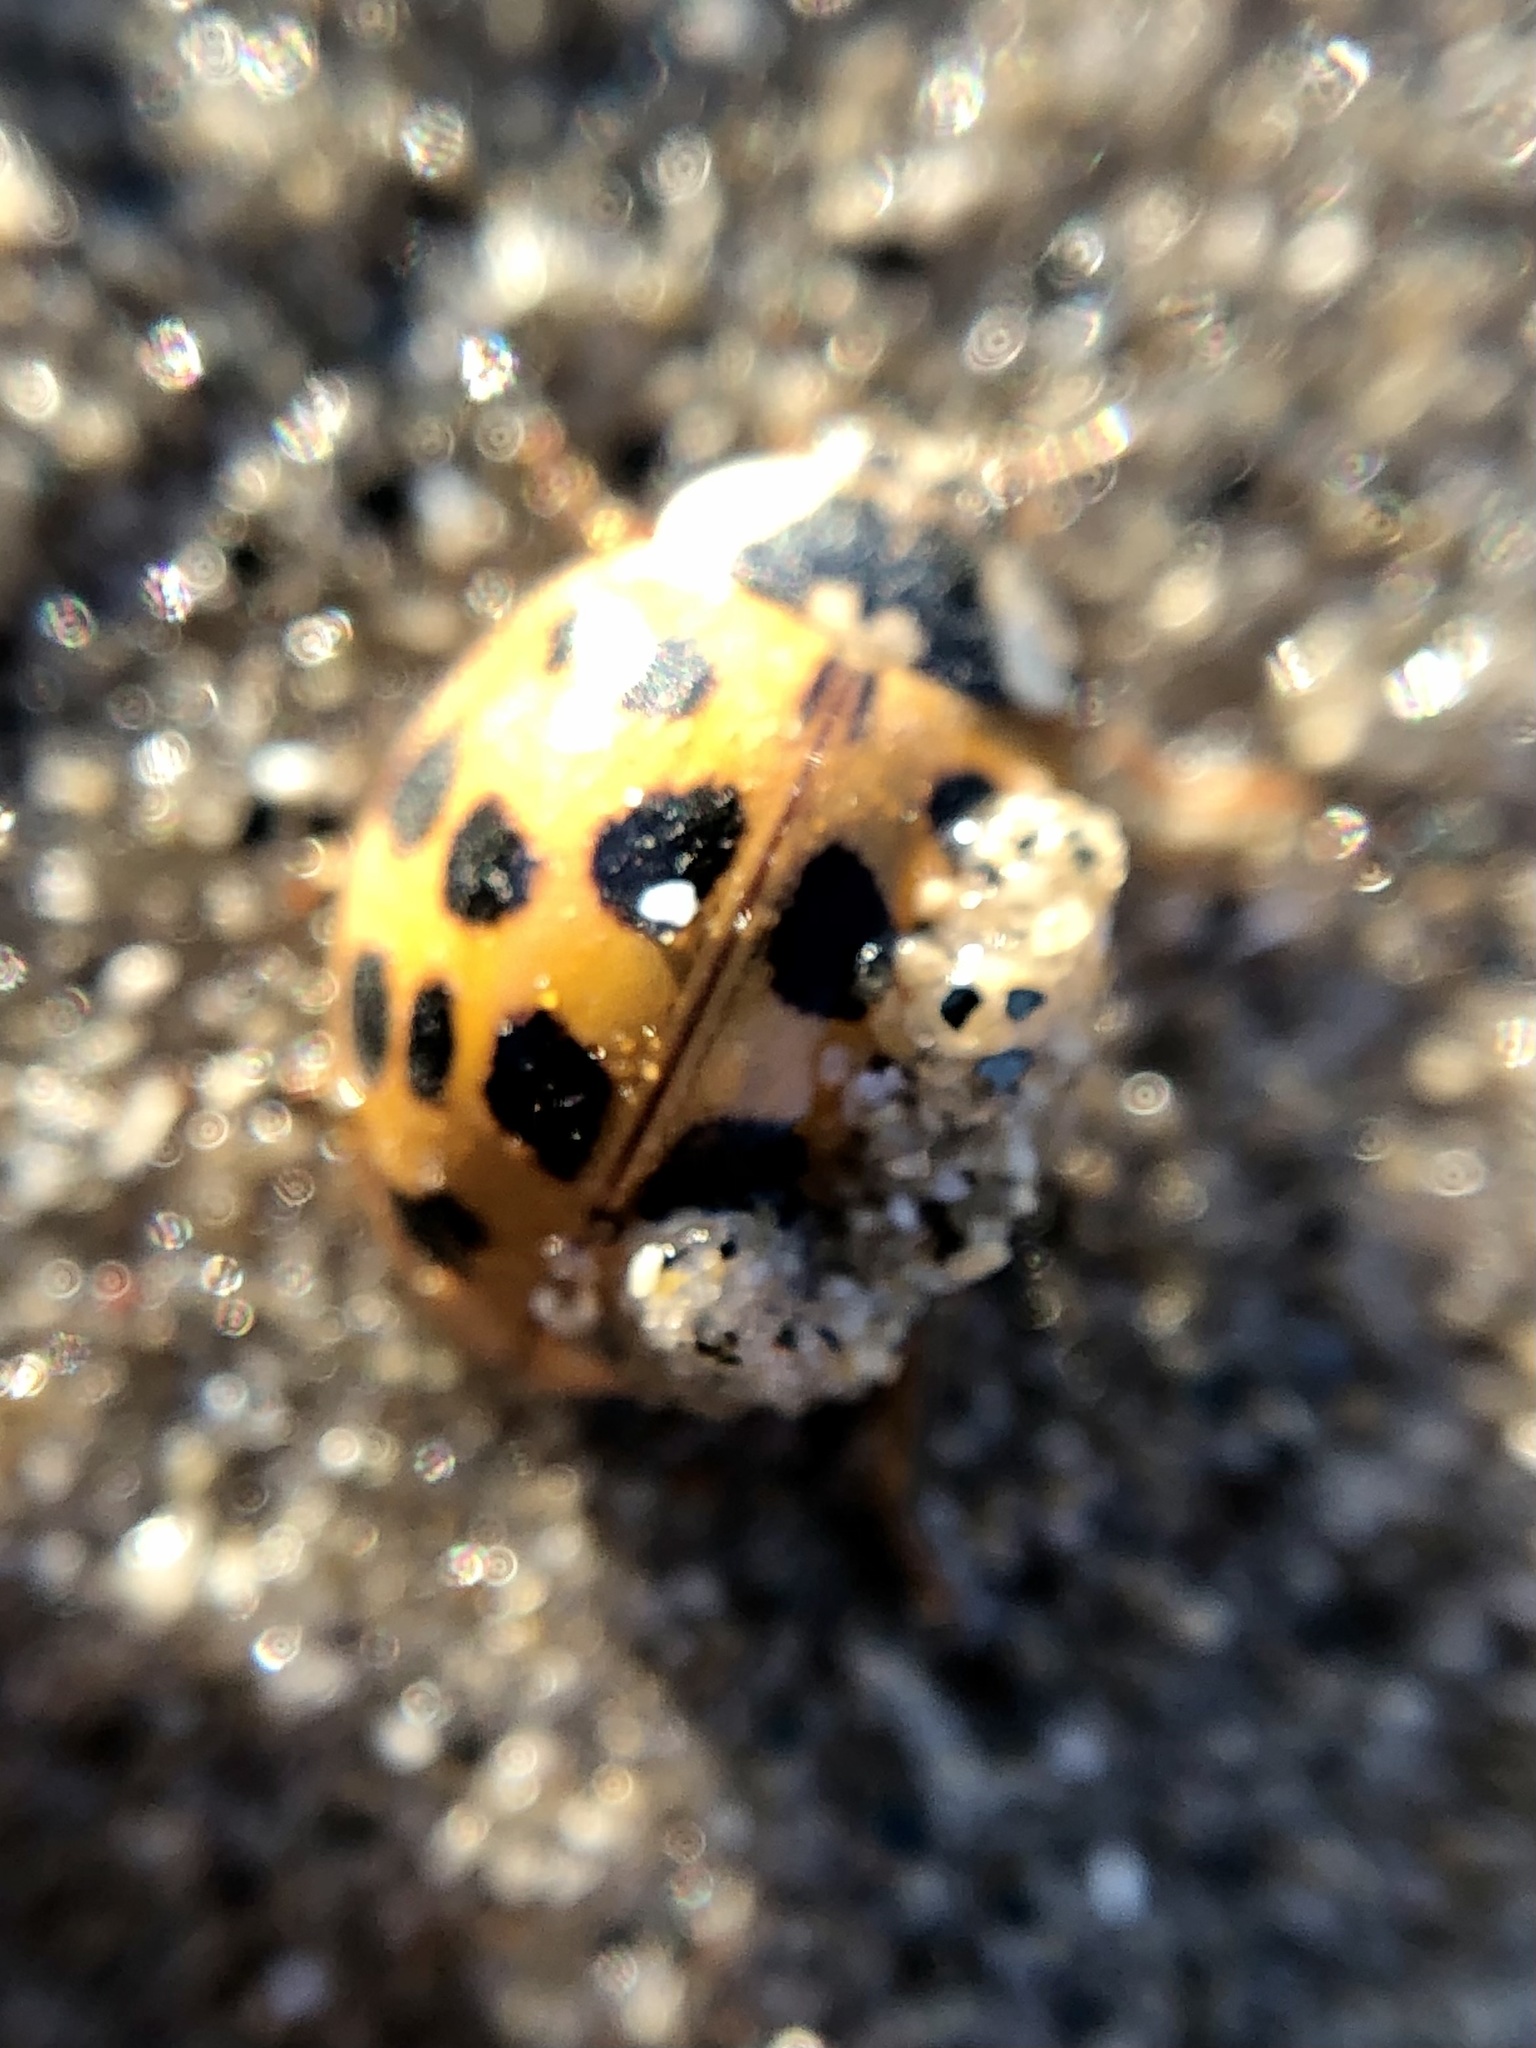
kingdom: Animalia
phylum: Arthropoda
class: Insecta
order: Coleoptera
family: Coccinellidae
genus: Harmonia
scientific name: Harmonia axyridis
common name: Harlequin ladybird
